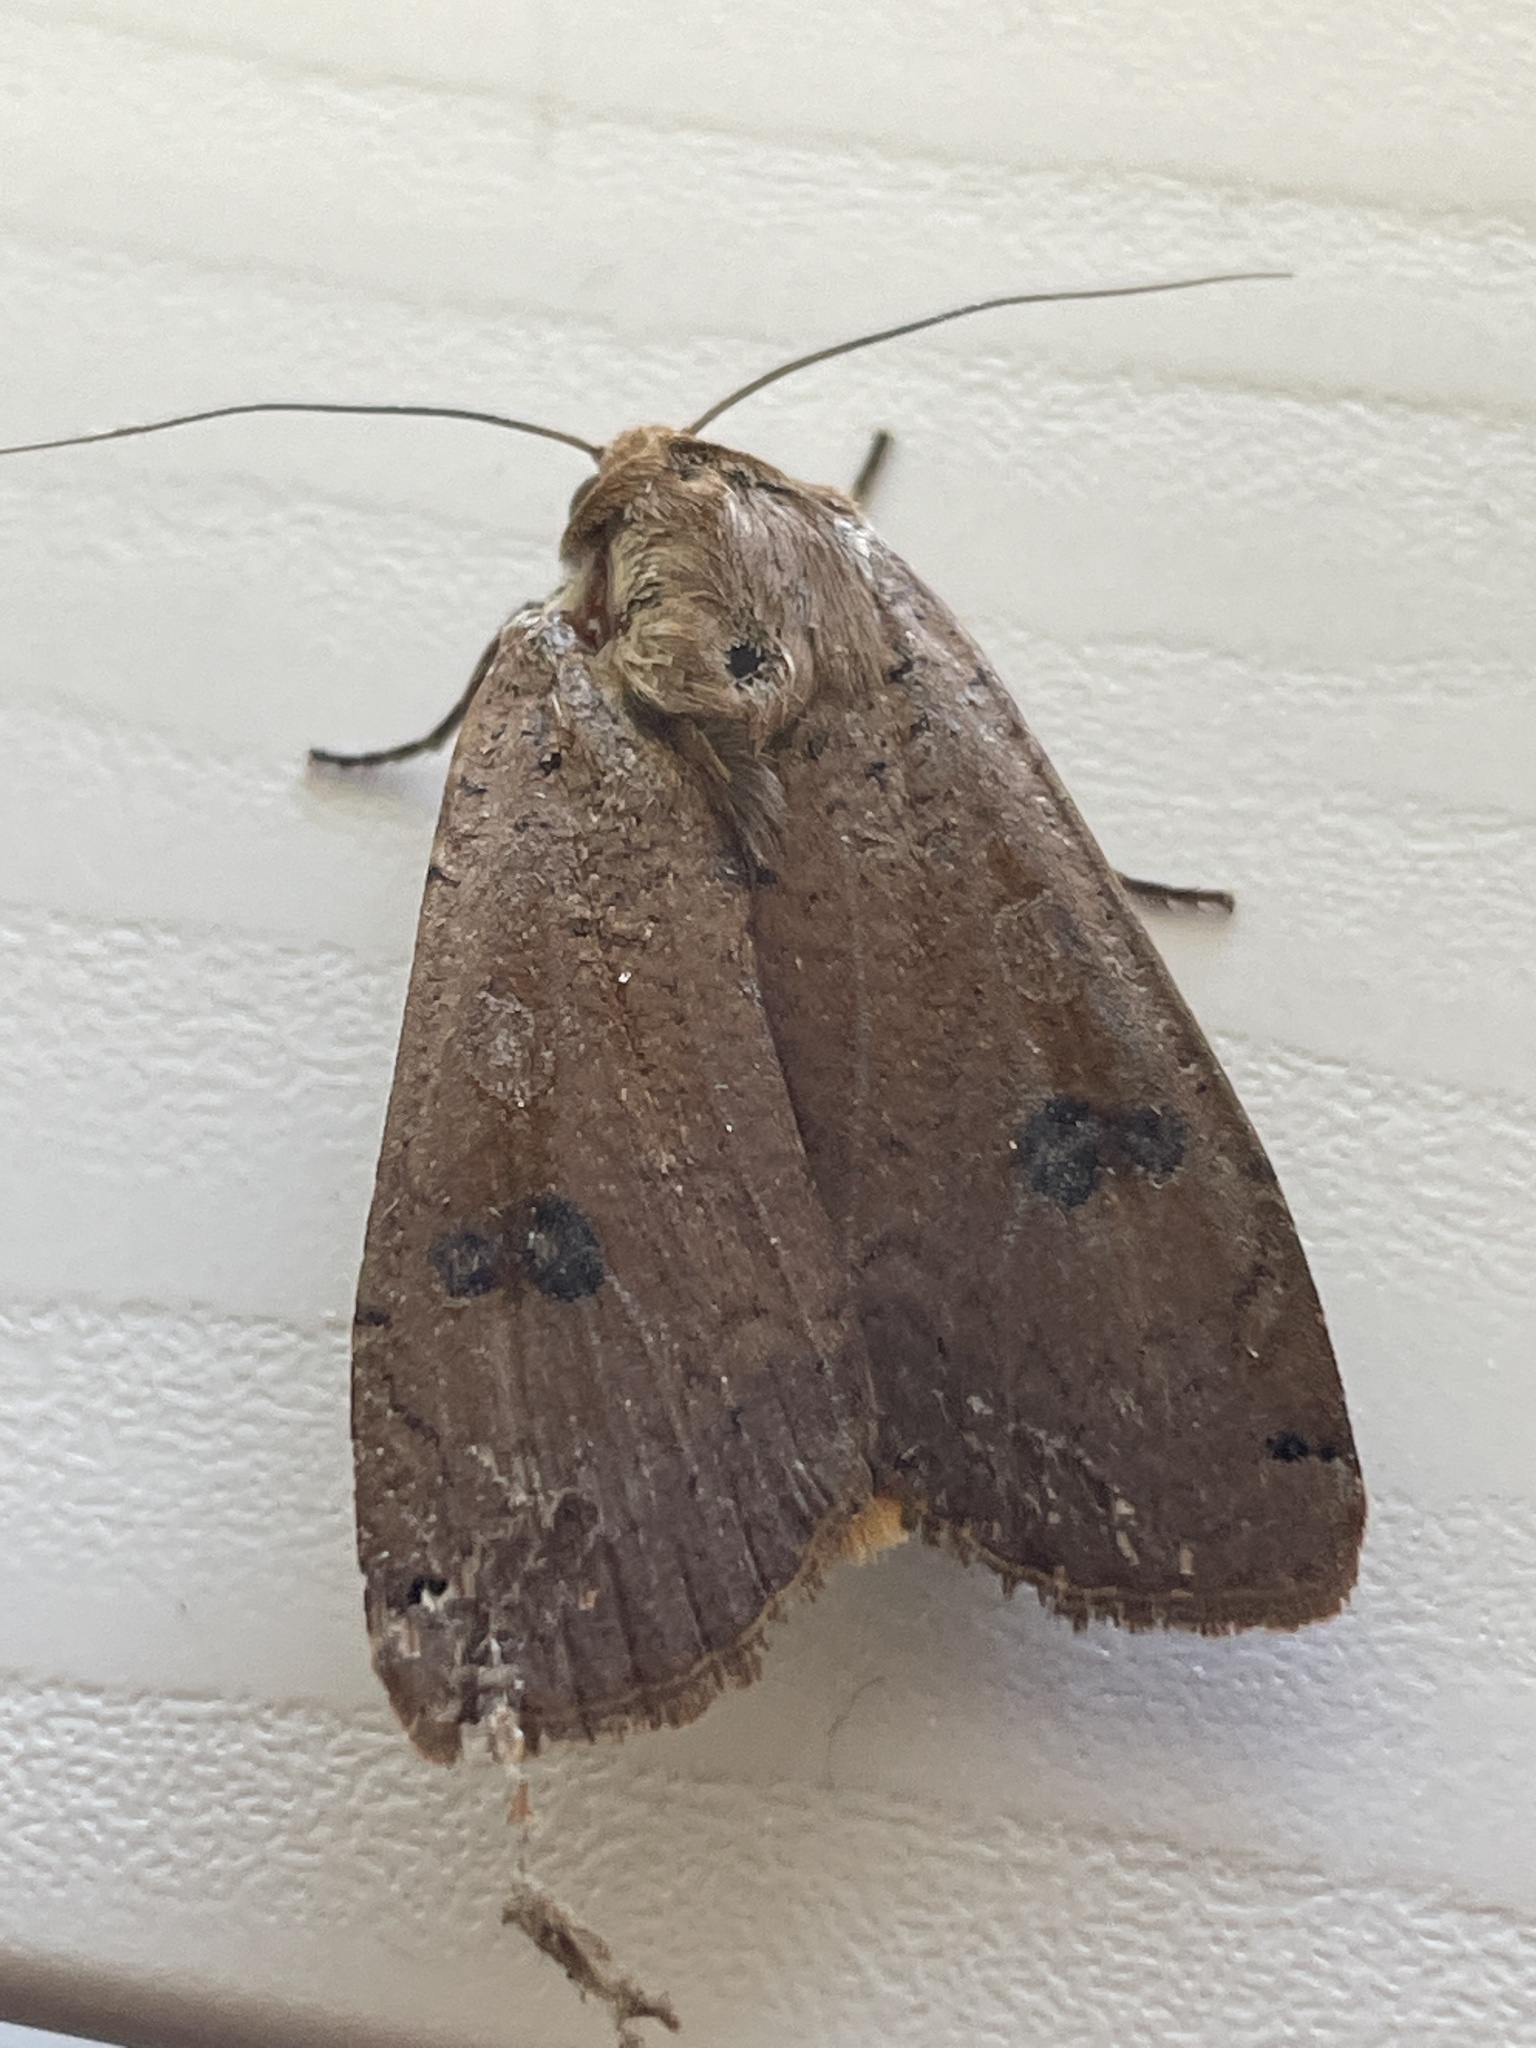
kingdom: Animalia
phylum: Arthropoda
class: Insecta
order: Lepidoptera
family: Noctuidae
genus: Noctua
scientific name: Noctua pronuba
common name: Large yellow underwing
